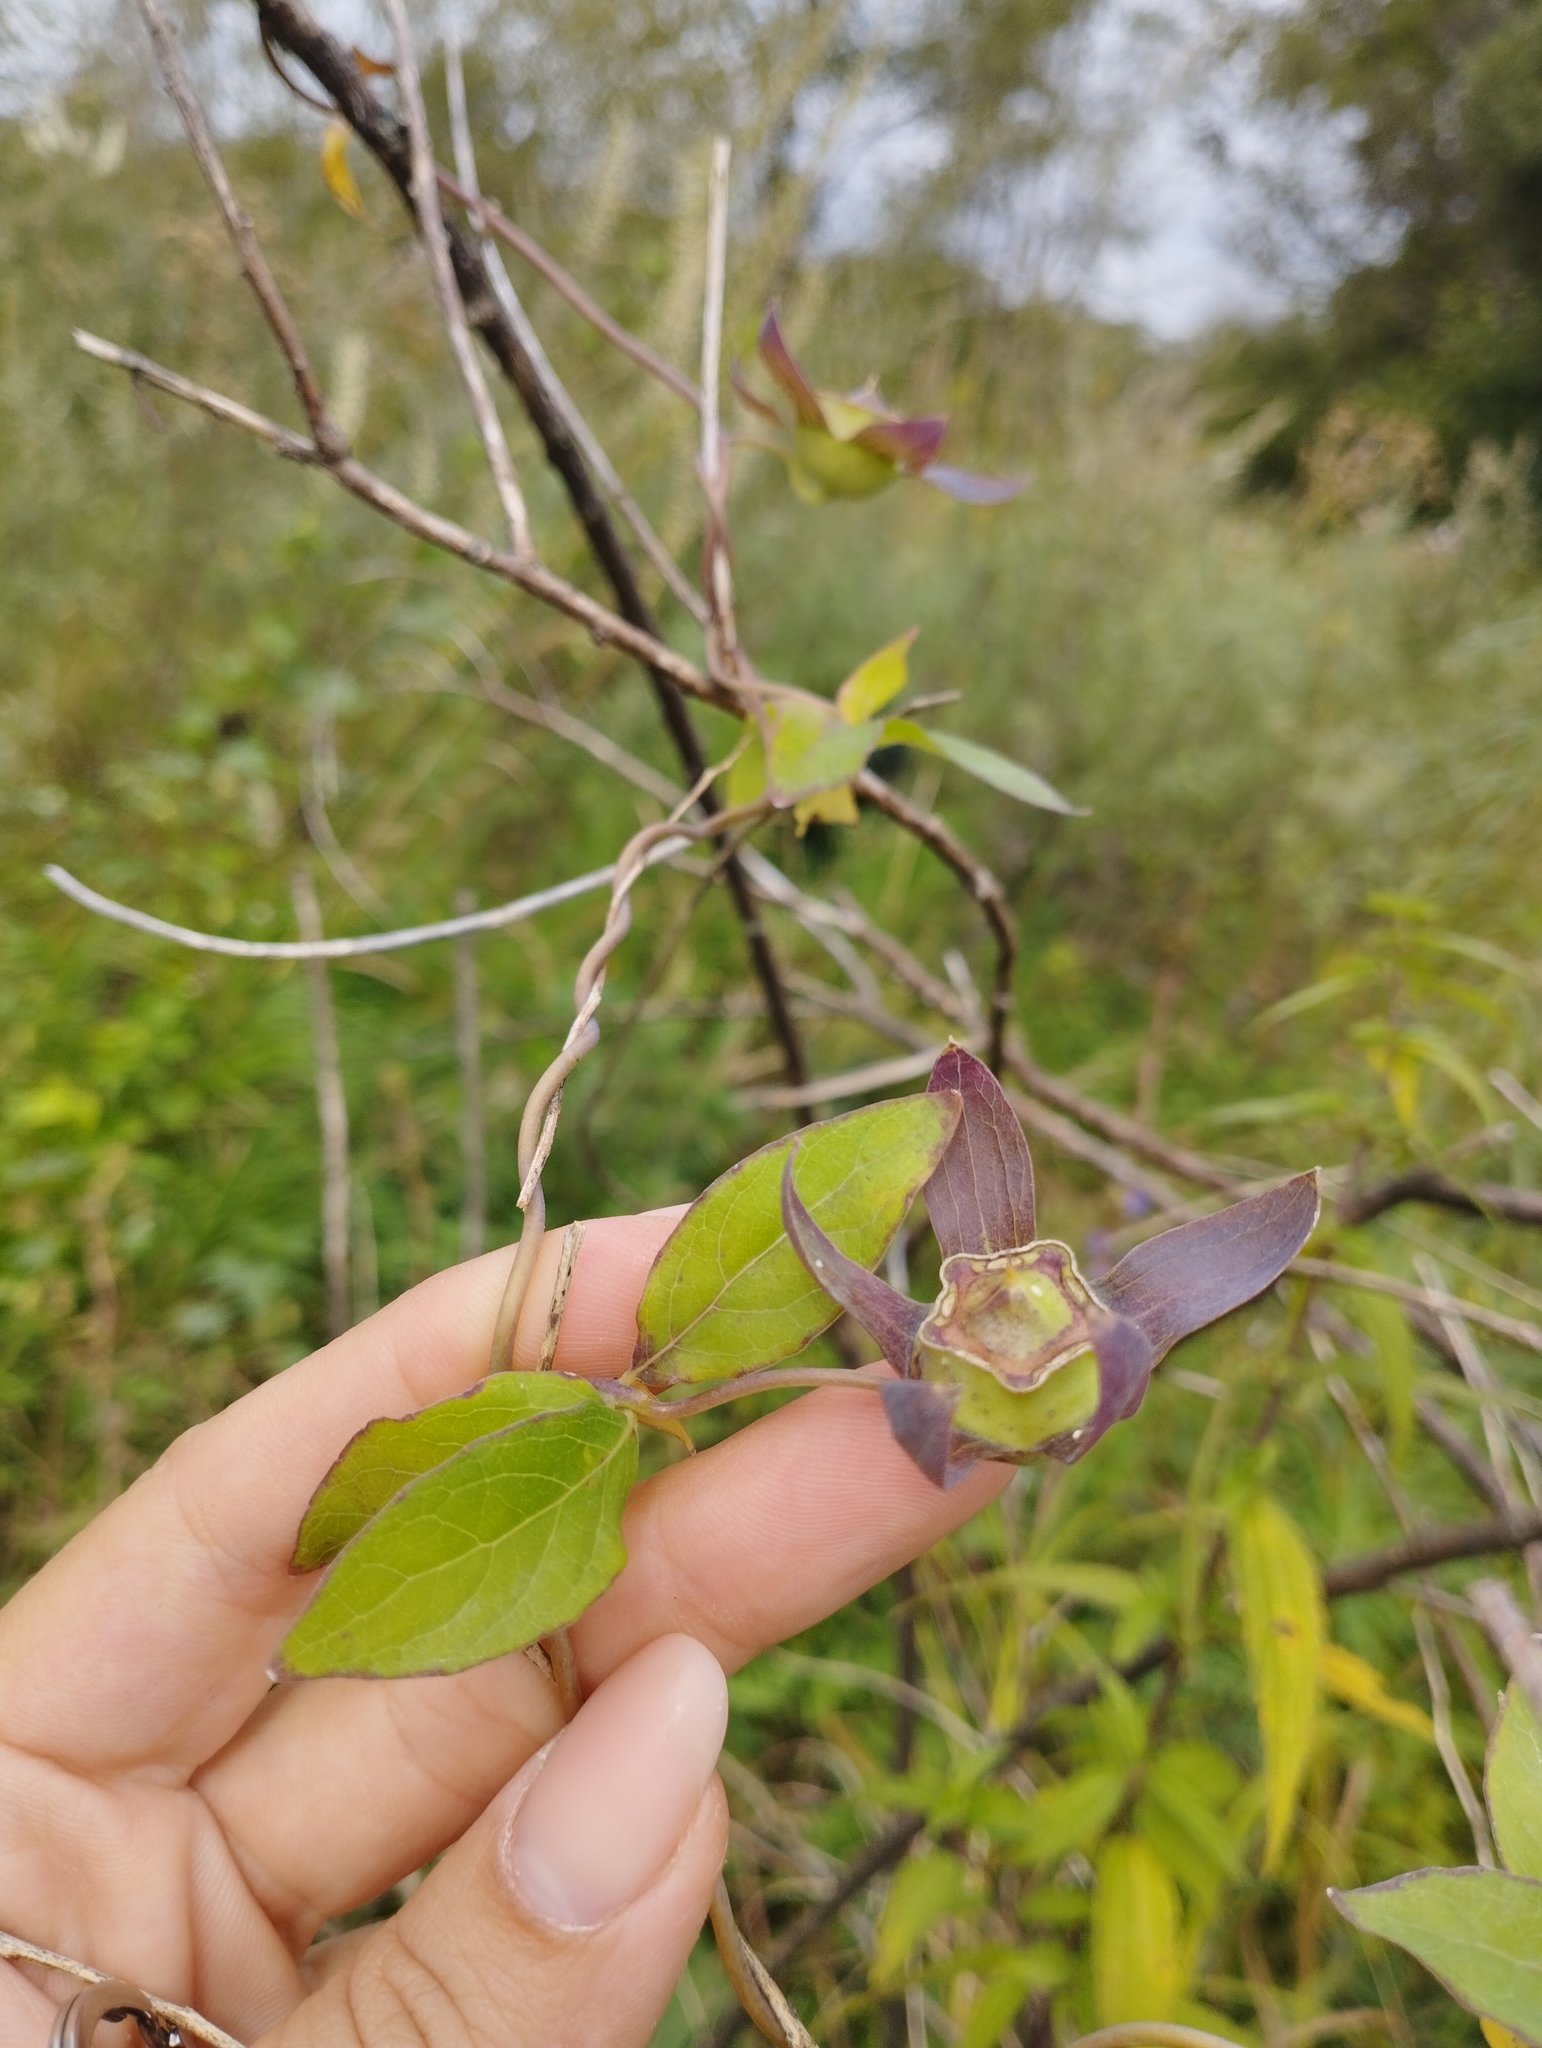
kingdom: Plantae
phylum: Tracheophyta
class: Magnoliopsida
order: Asterales
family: Campanulaceae
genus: Codonopsis
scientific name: Codonopsis ussuriensis
